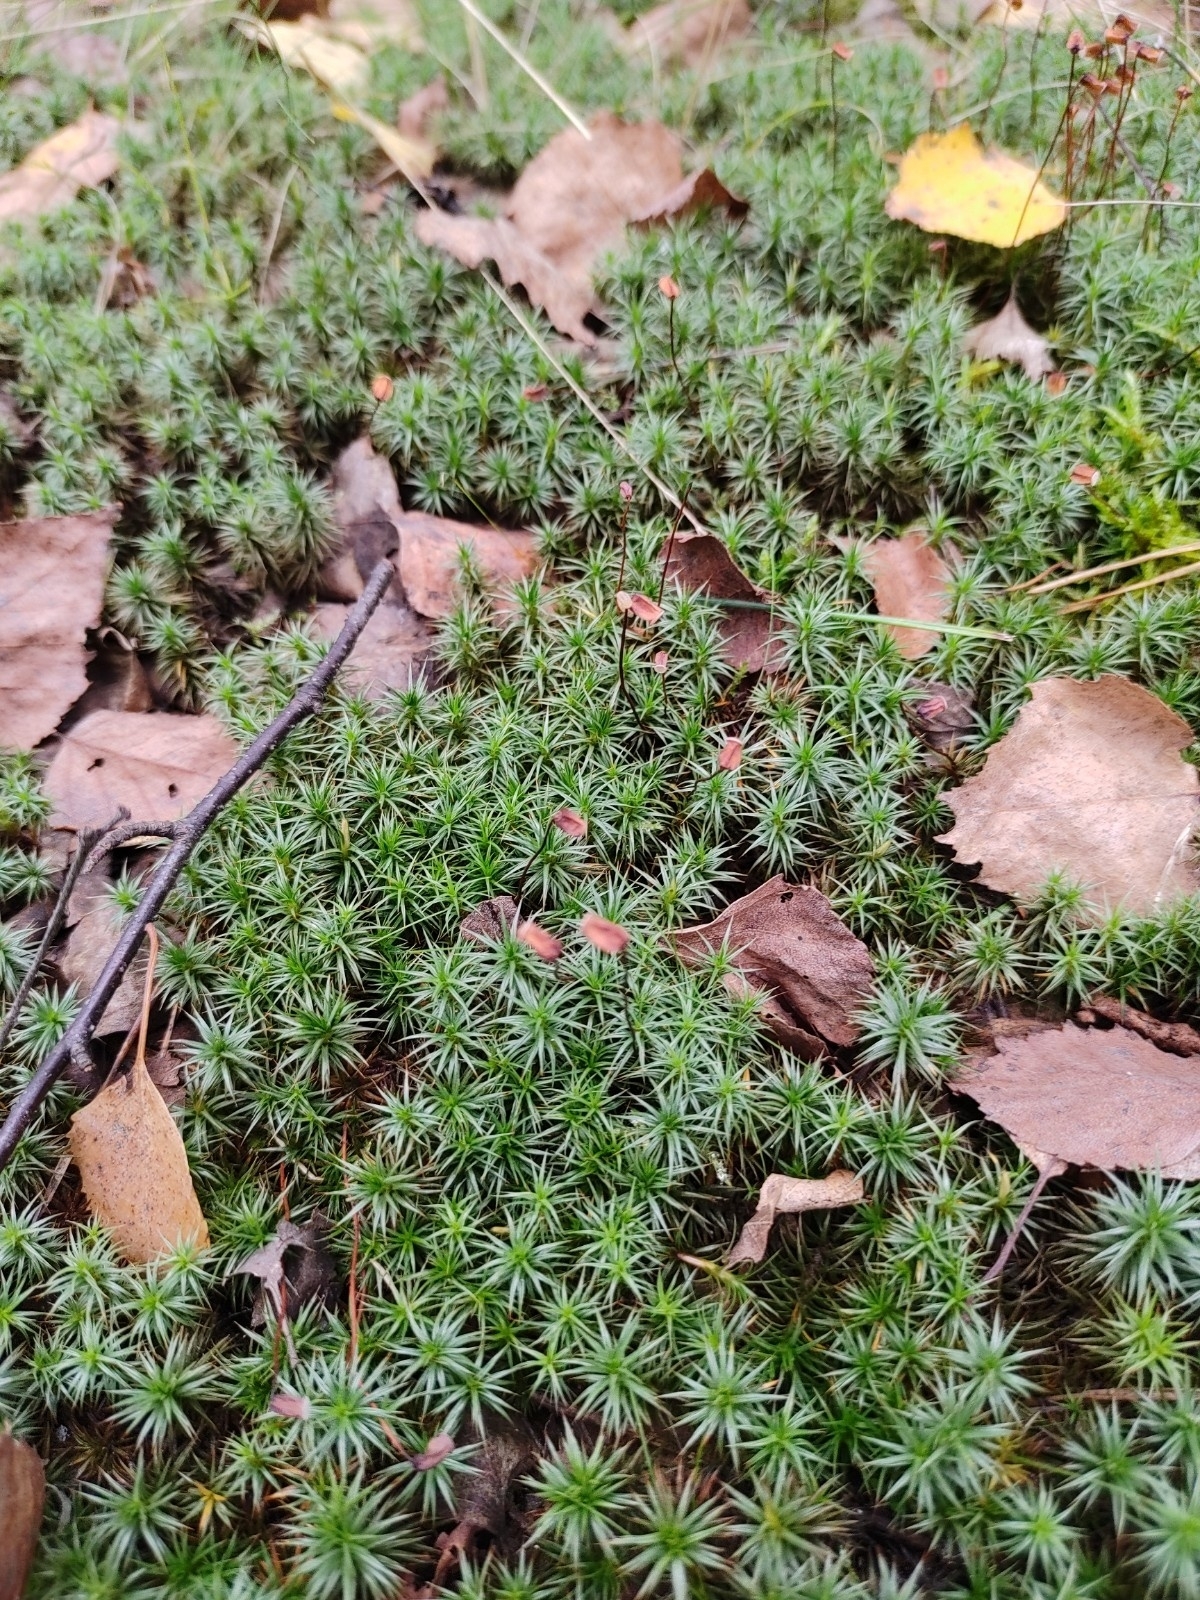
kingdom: Plantae
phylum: Bryophyta
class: Polytrichopsida
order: Polytrichales
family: Polytrichaceae
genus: Polytrichum
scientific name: Polytrichum juniperinum
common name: Juniper haircap moss
